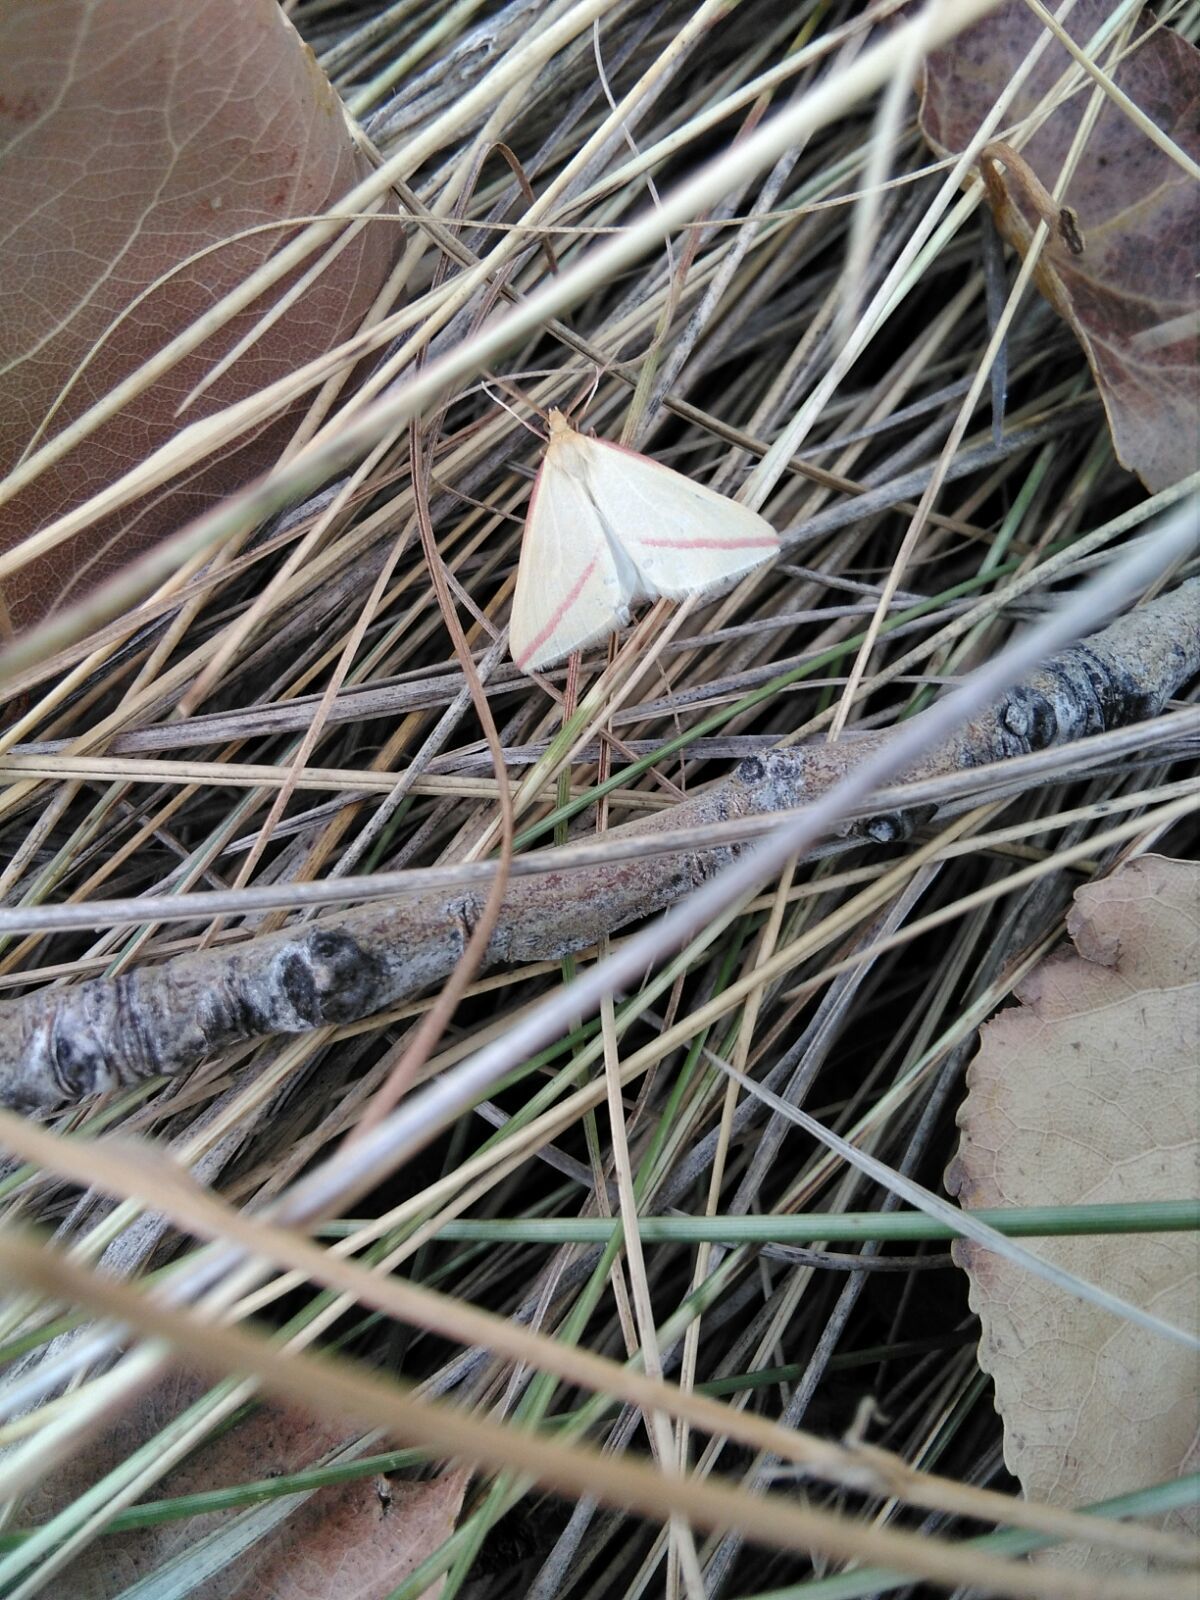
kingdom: Animalia
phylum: Arthropoda
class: Insecta
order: Lepidoptera
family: Geometridae
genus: Rhodometra
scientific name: Rhodometra sacraria
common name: Vestal
